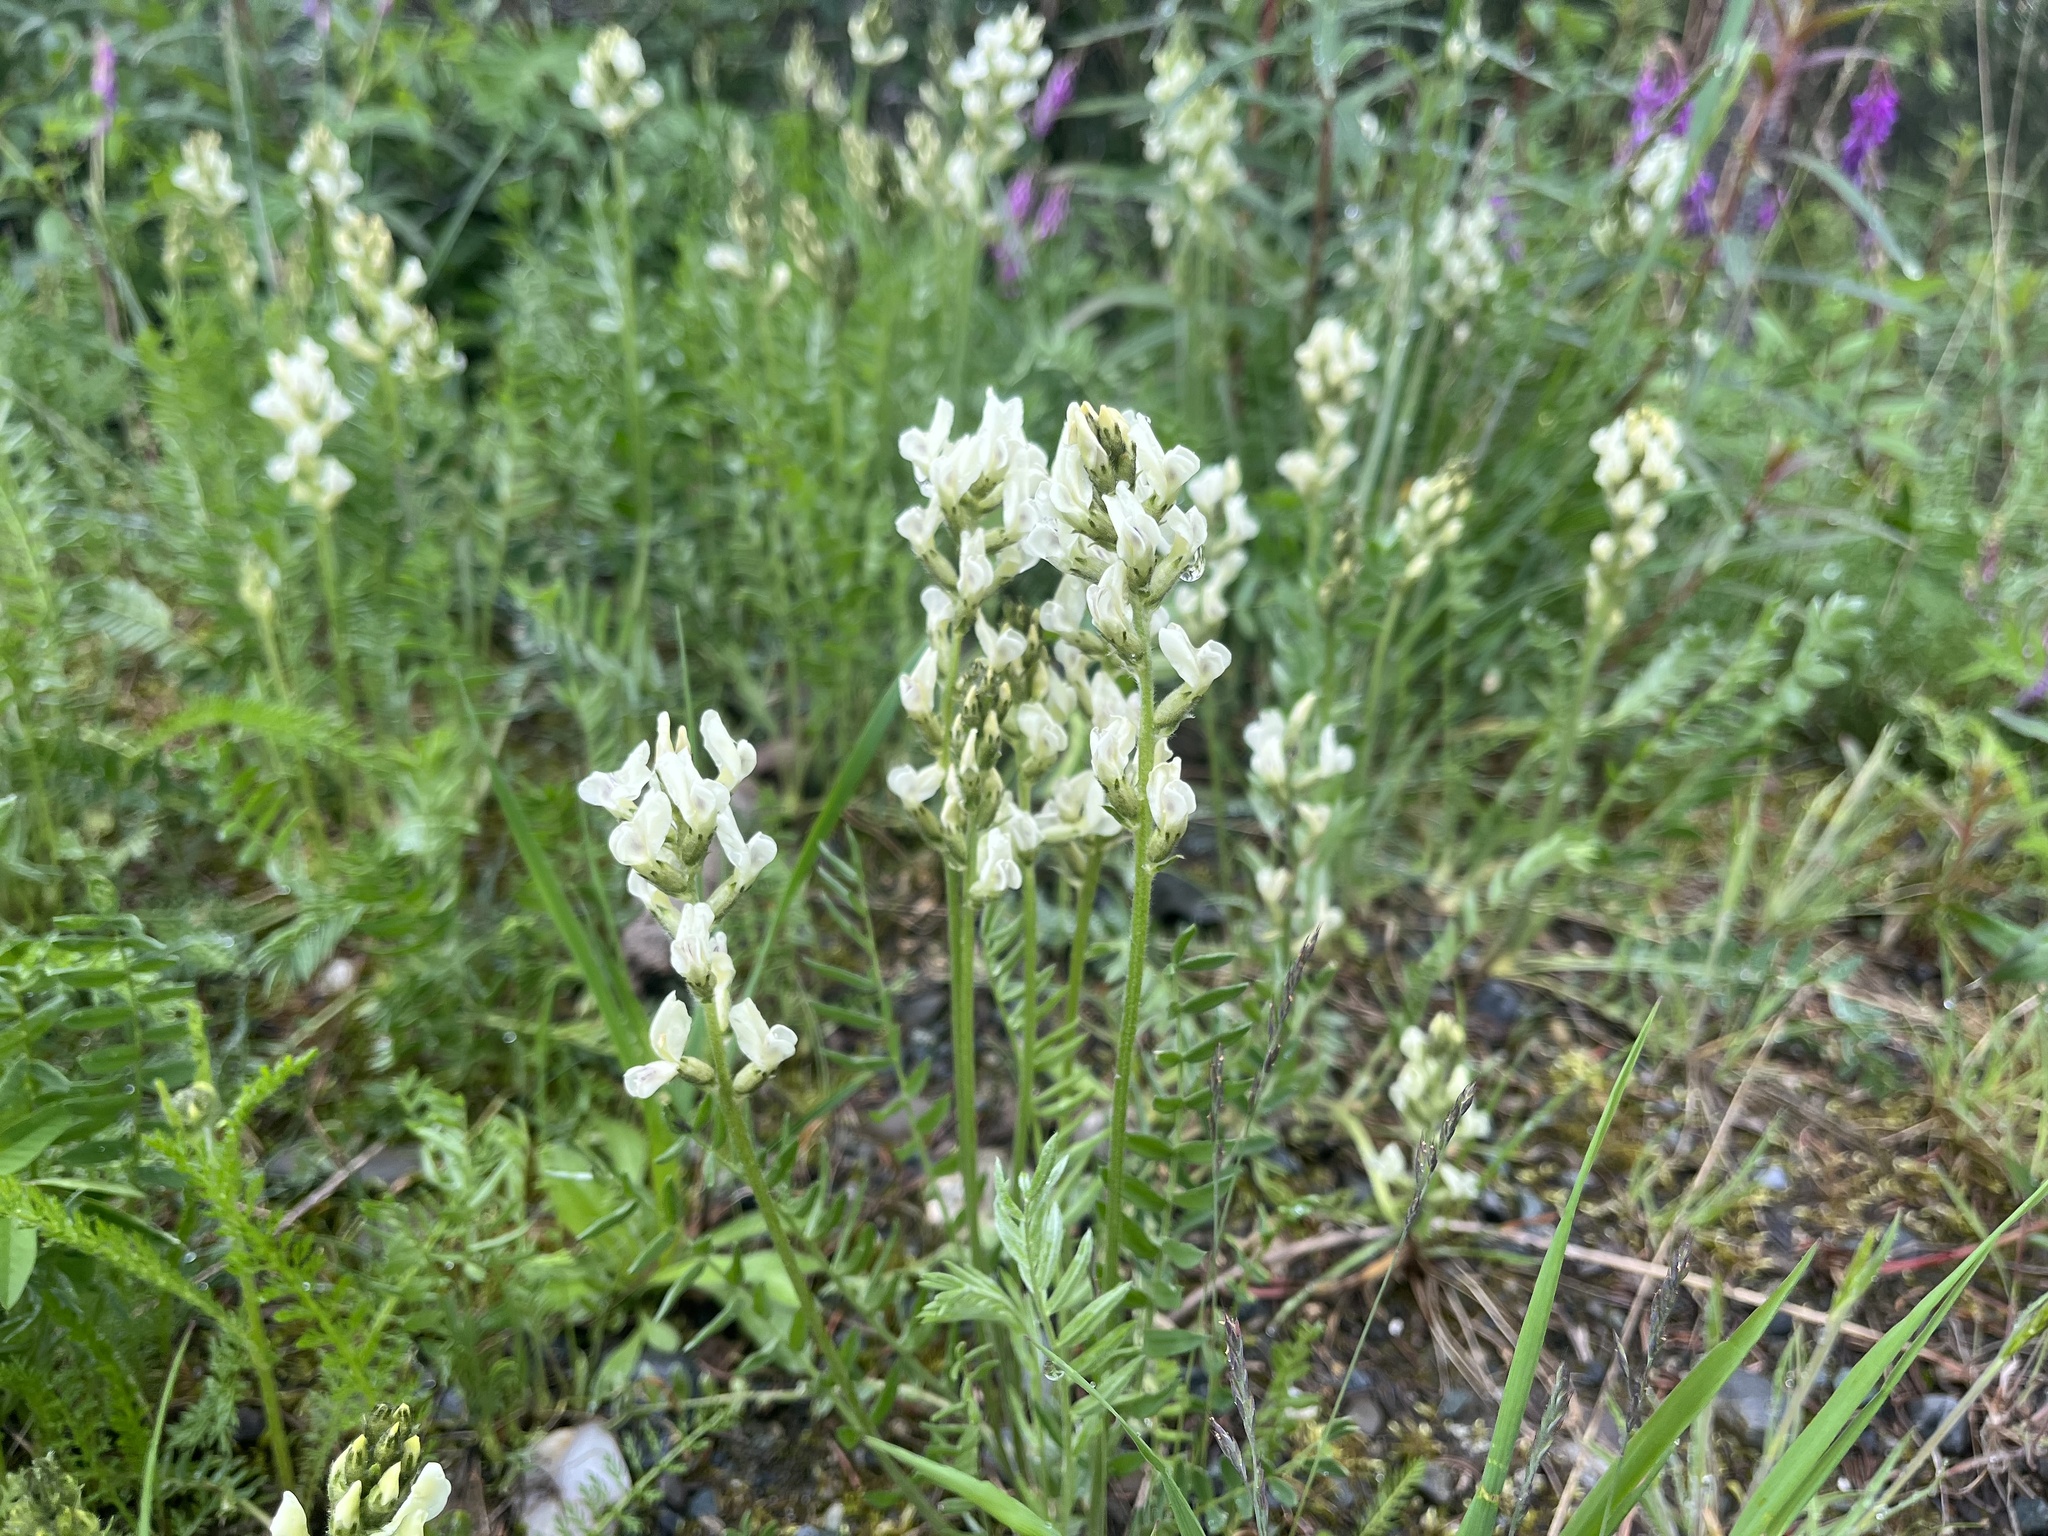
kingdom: Plantae
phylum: Tracheophyta
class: Magnoliopsida
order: Fabales
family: Fabaceae
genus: Oxytropis
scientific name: Oxytropis campestris
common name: Field locoweed
